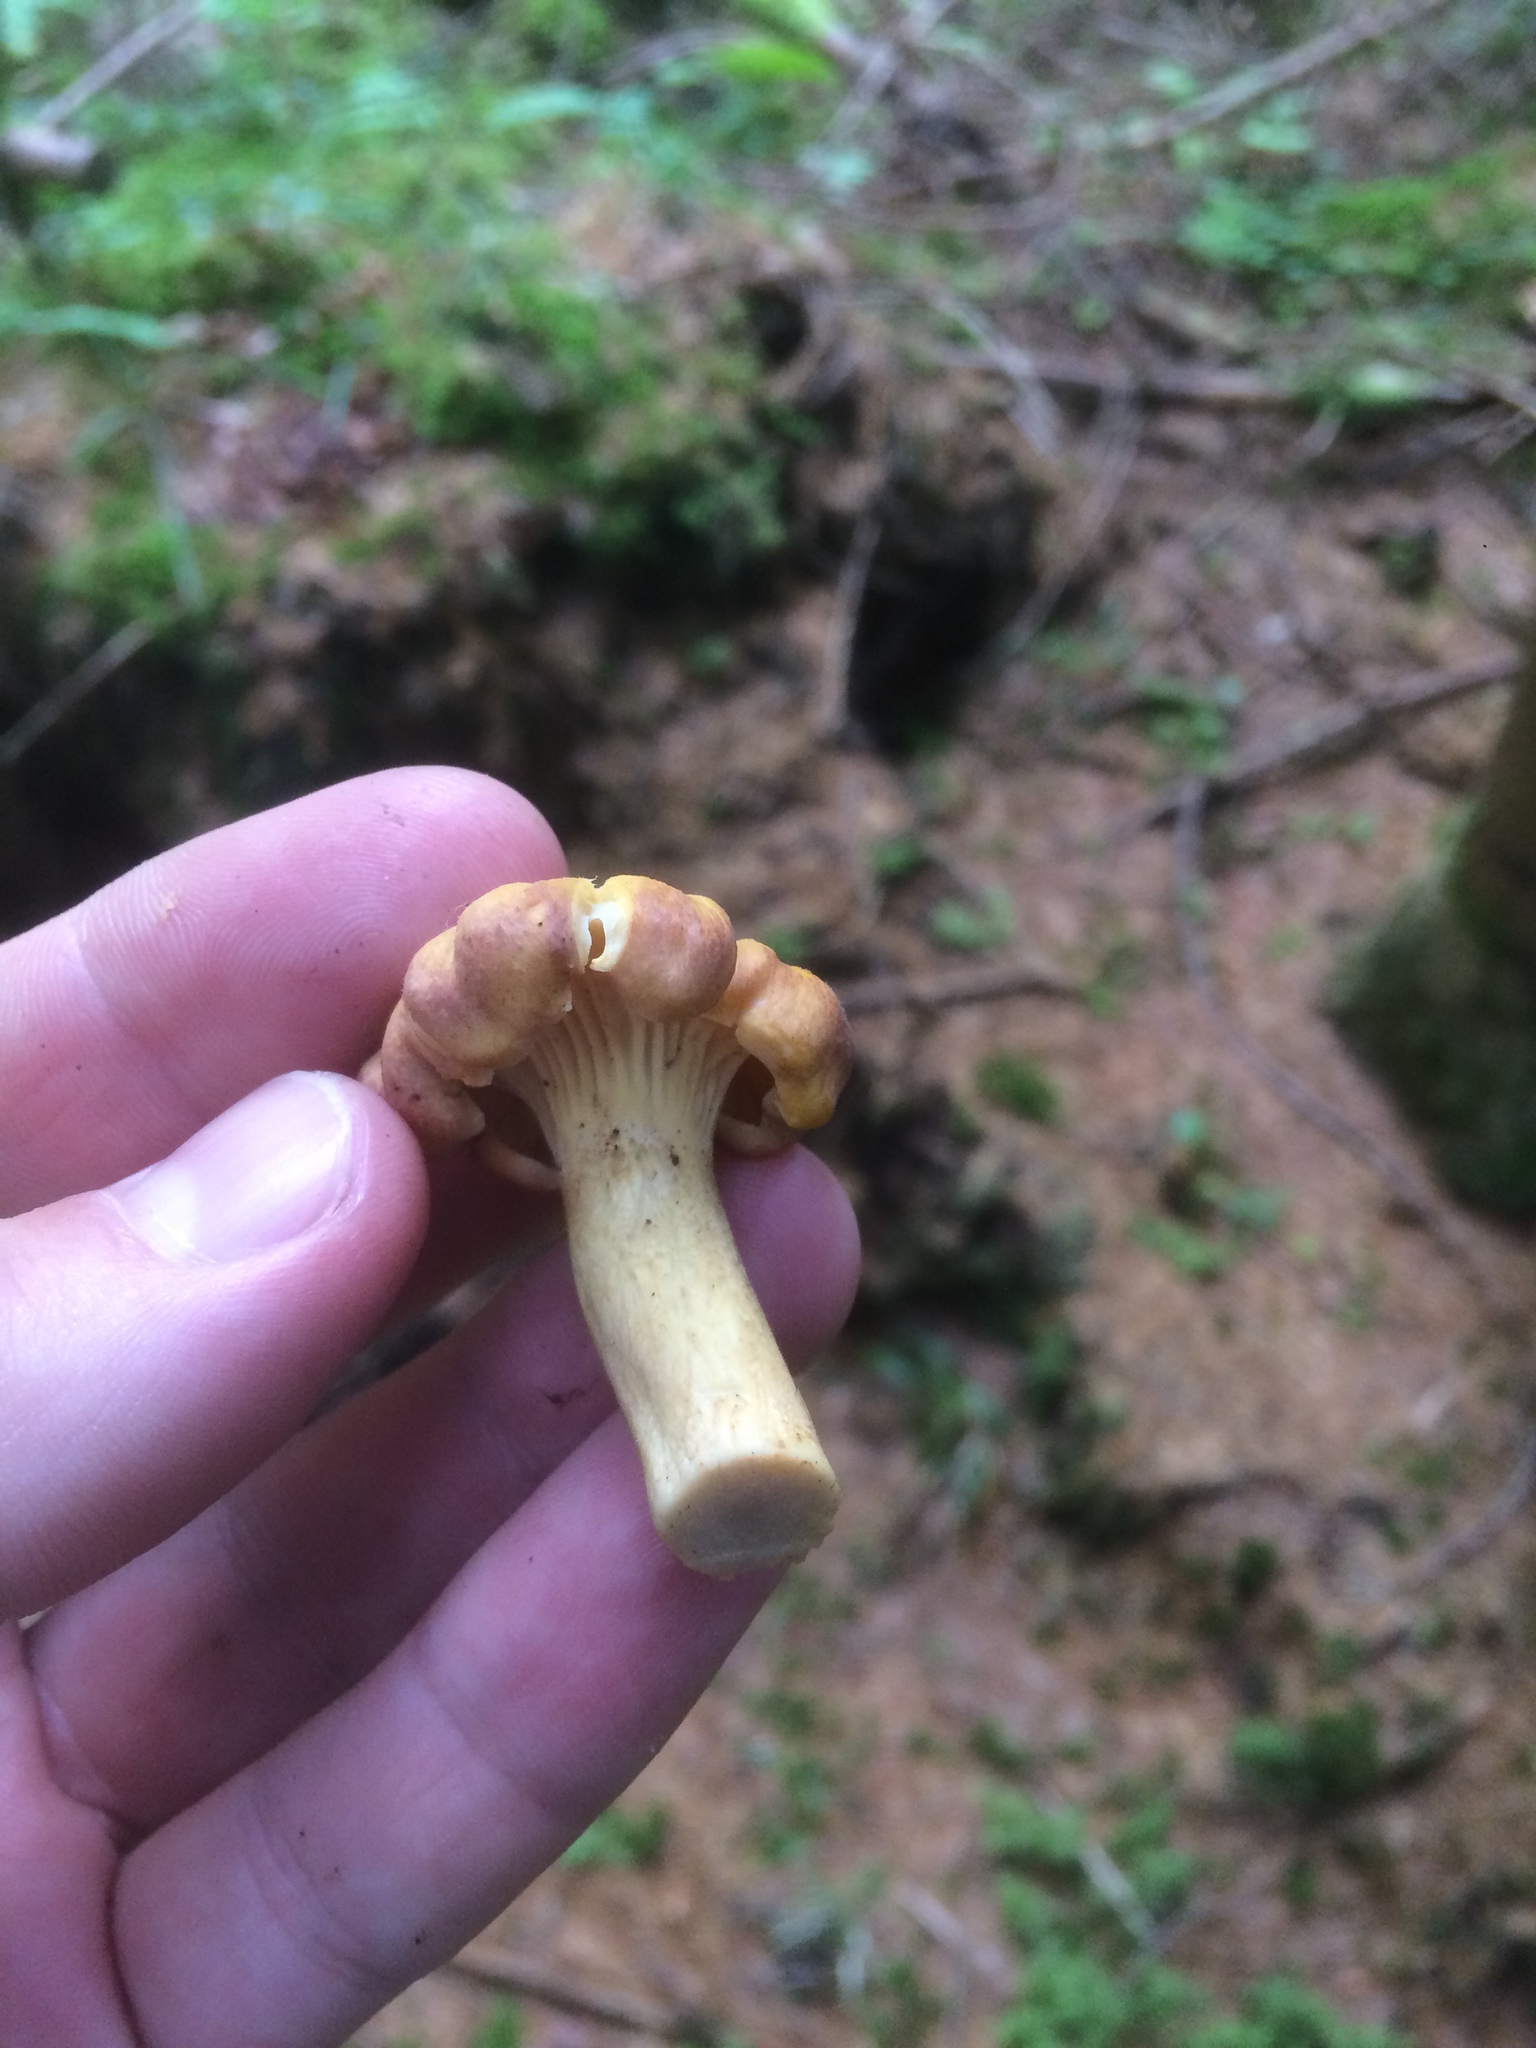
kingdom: Fungi
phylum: Basidiomycota
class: Agaricomycetes
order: Cantharellales
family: Hydnaceae
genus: Cantharellus
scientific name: Cantharellus amethysteus
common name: Amethyst chanterelle
